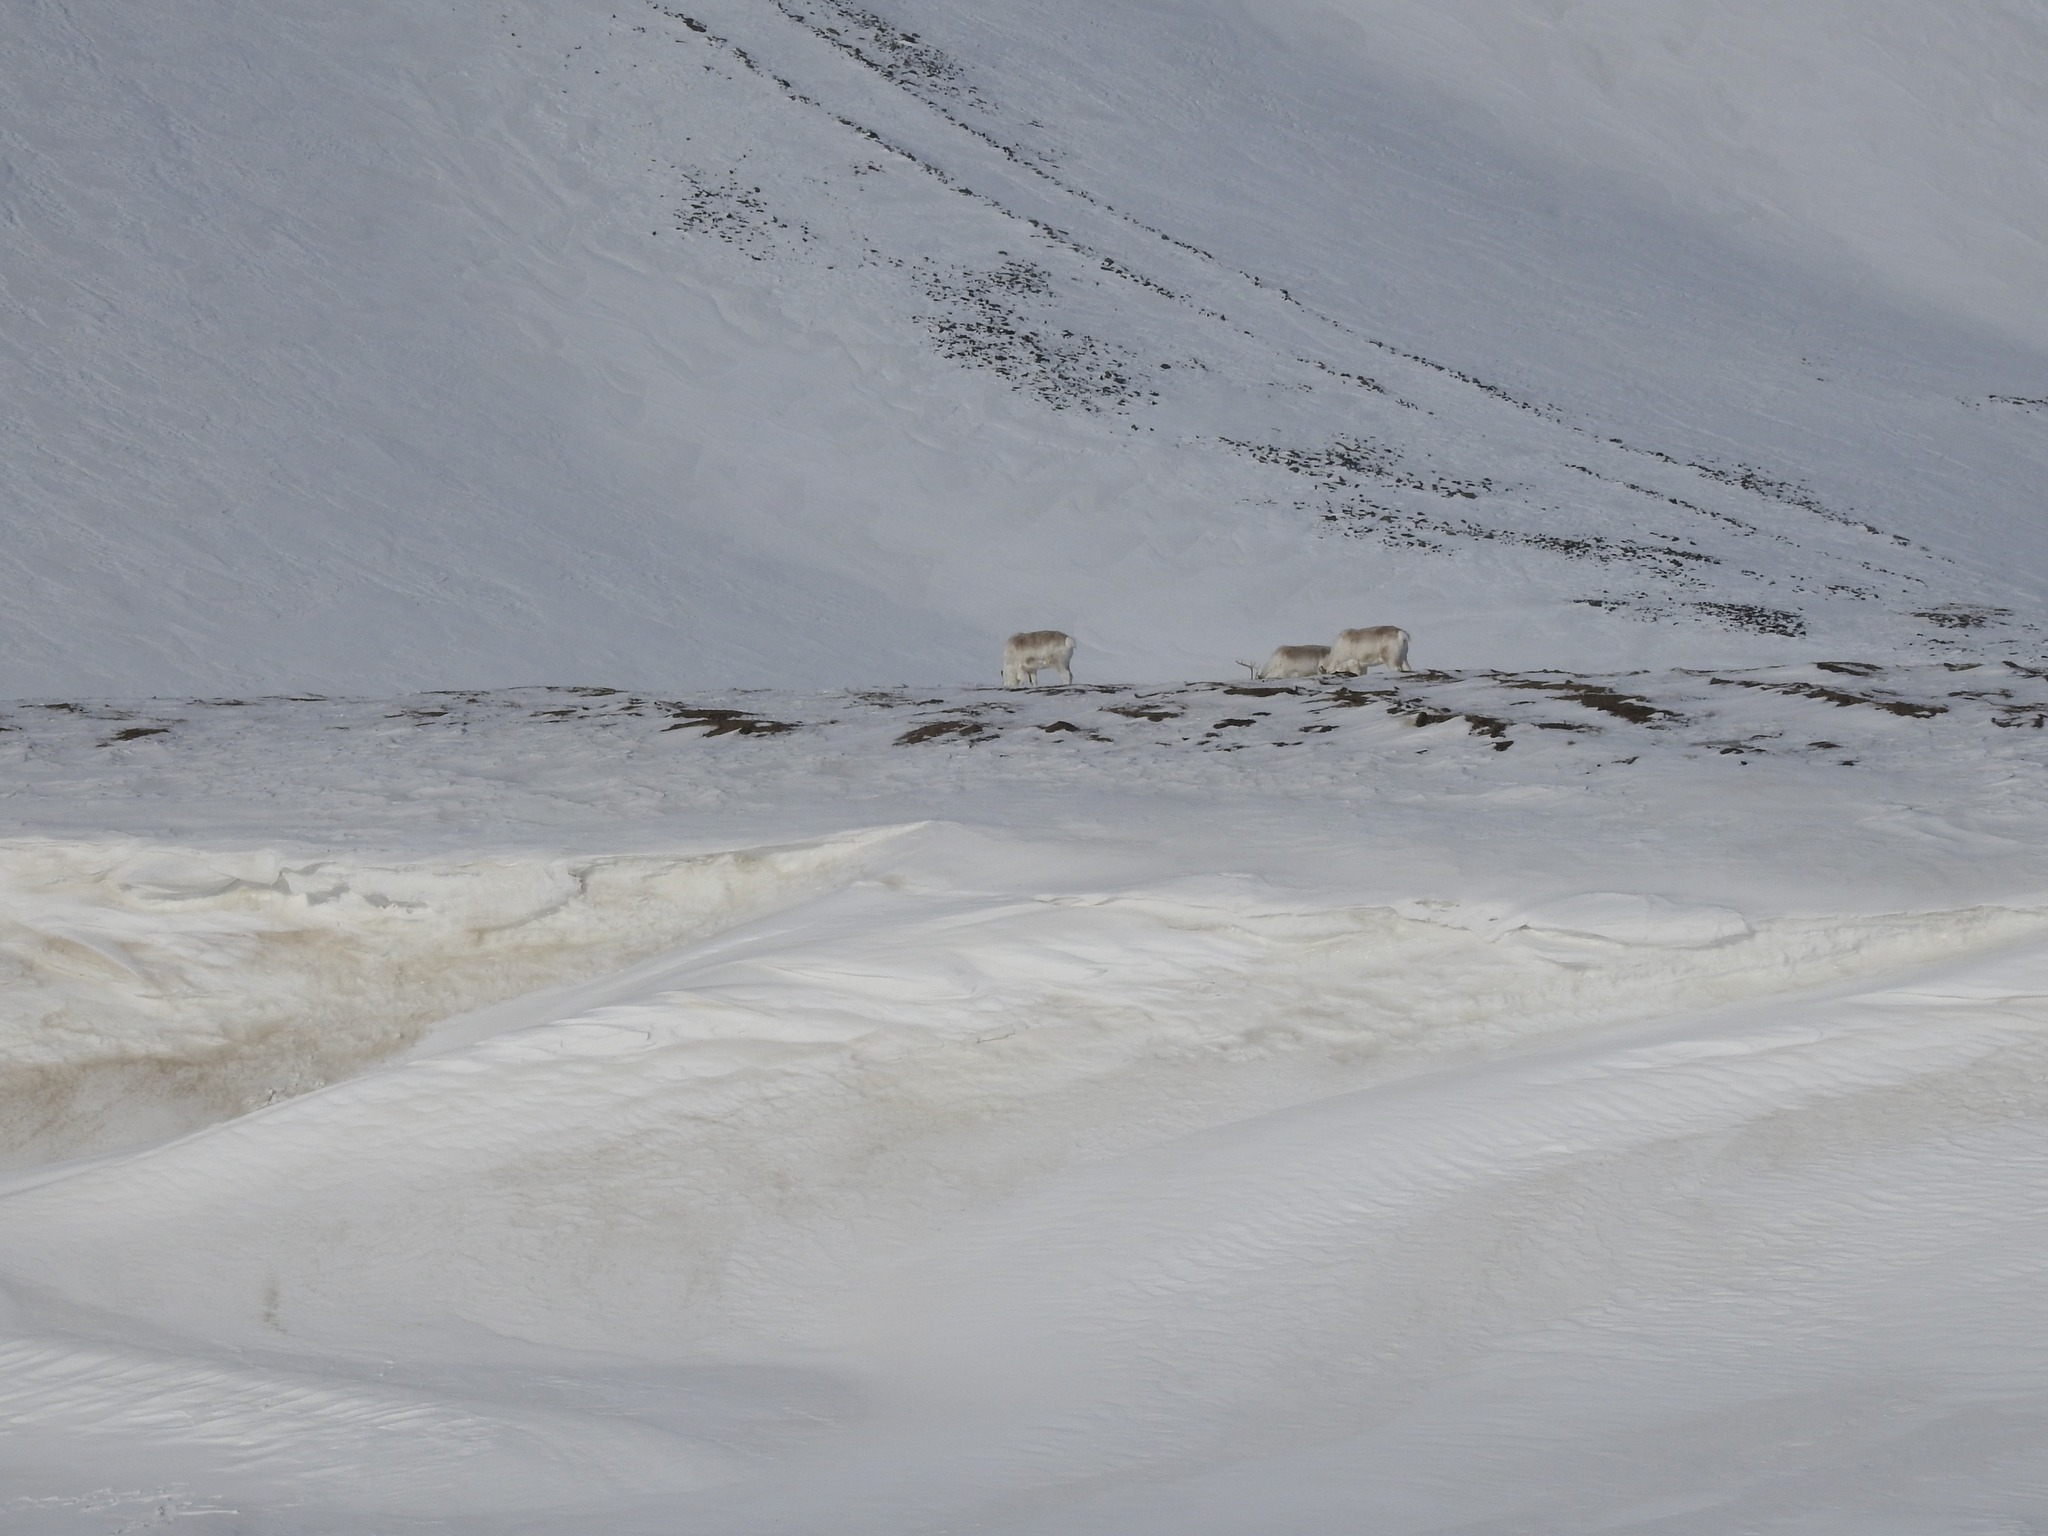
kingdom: Animalia
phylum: Chordata
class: Mammalia
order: Artiodactyla
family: Cervidae
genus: Rangifer
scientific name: Rangifer tarandus
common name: Reindeer
